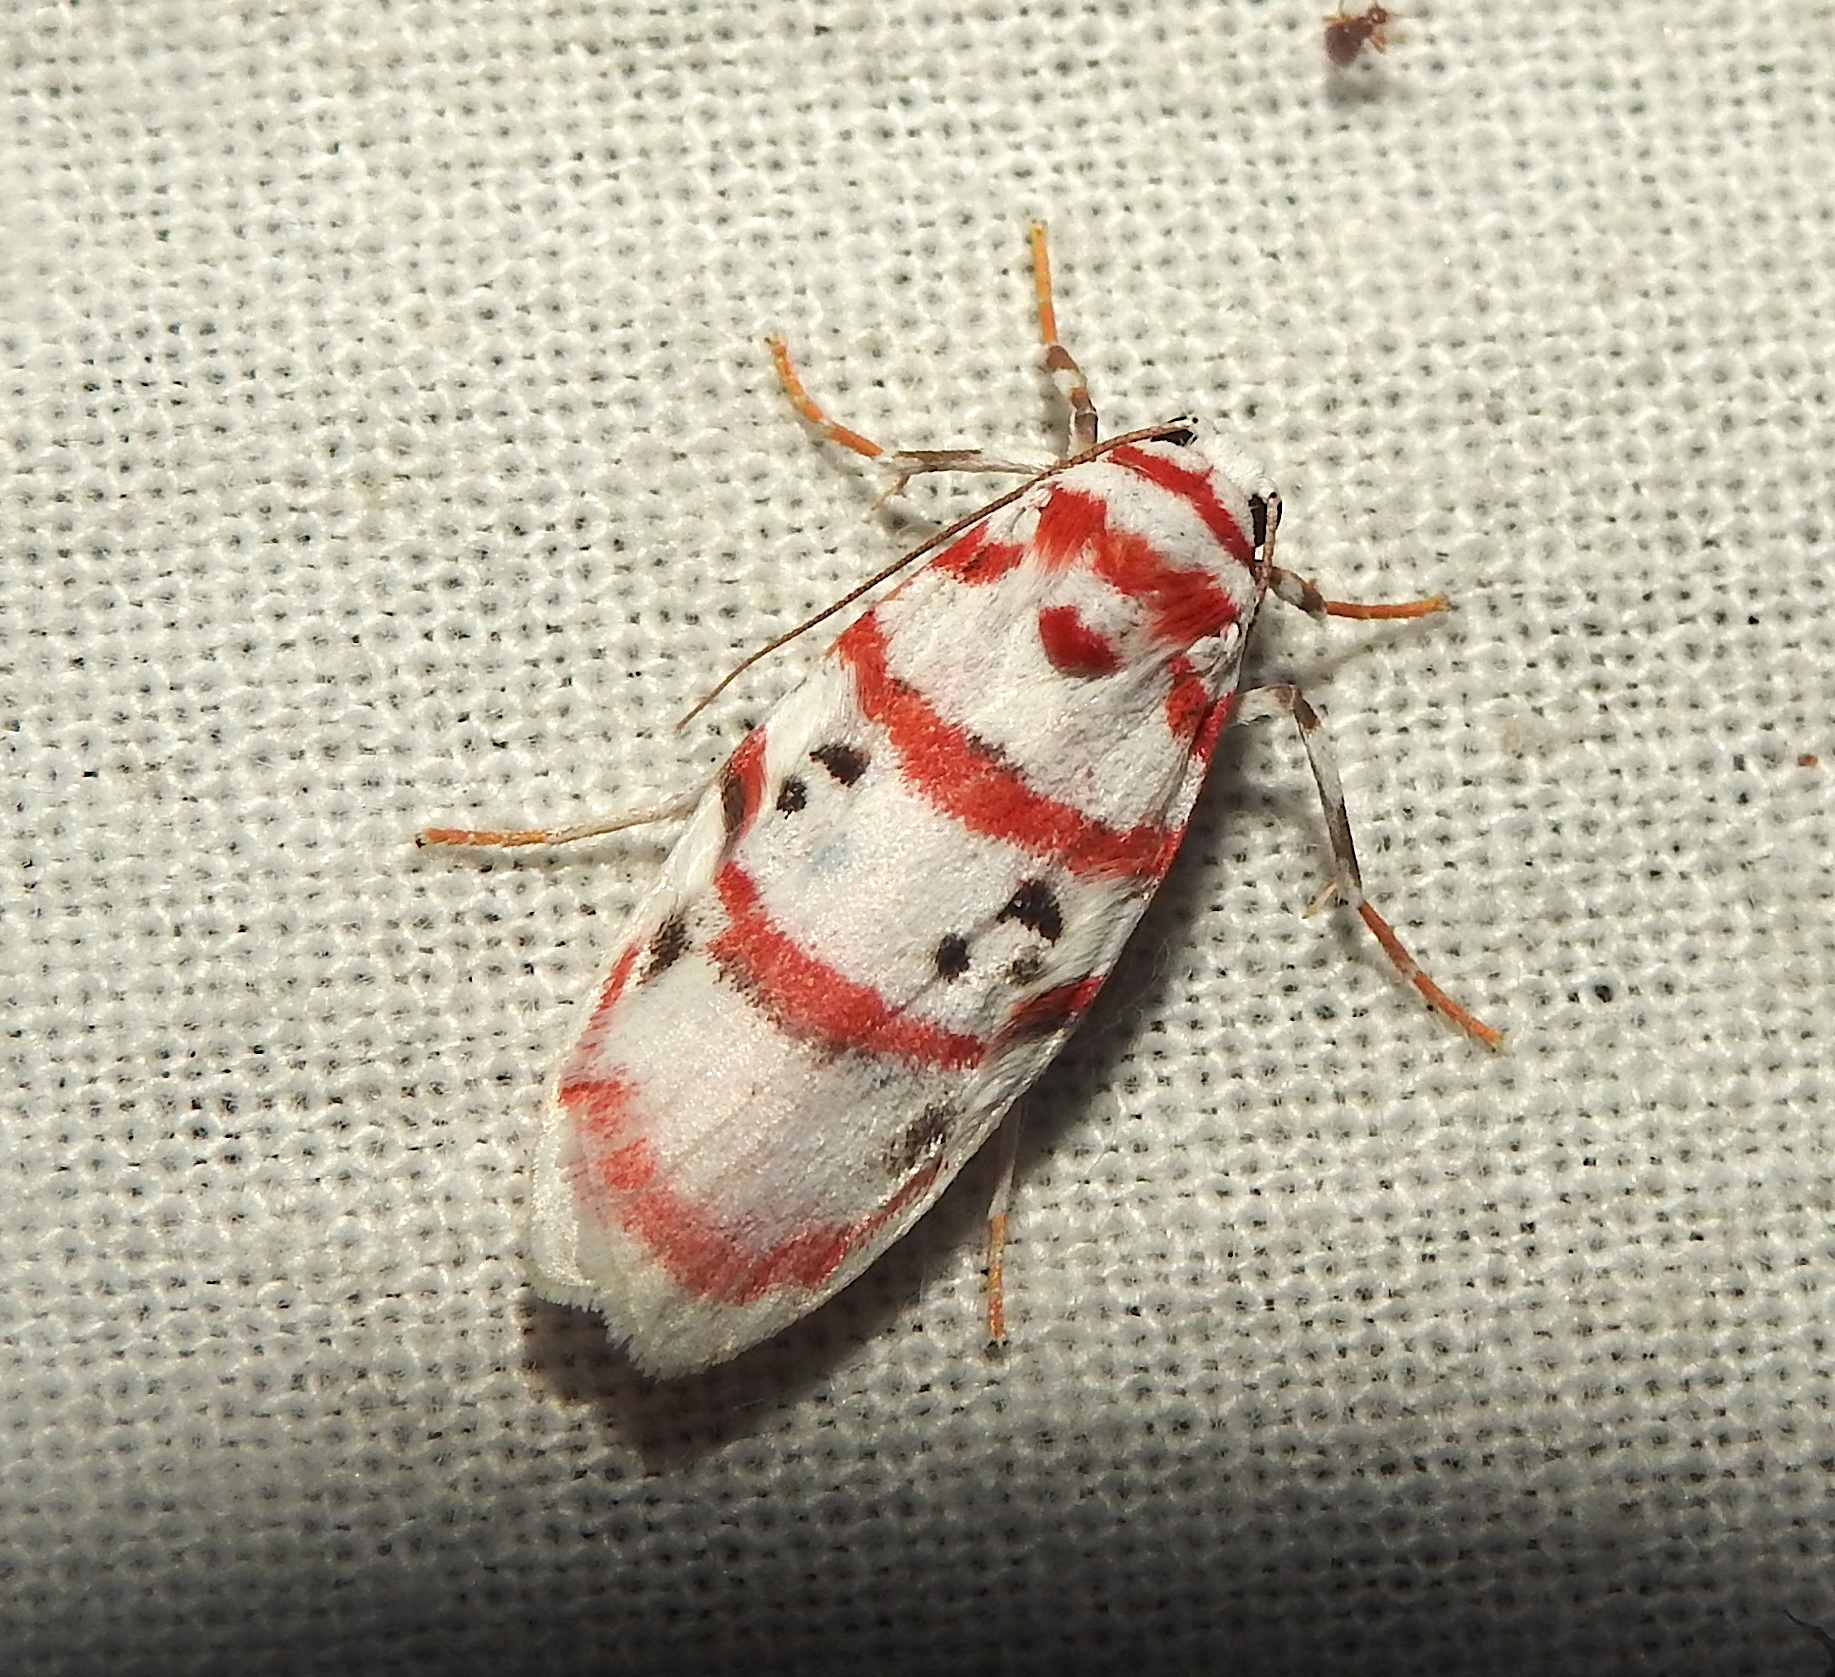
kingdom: Animalia
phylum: Arthropoda
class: Insecta
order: Lepidoptera
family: Erebidae
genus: Cyana
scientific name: Cyana peregrina
